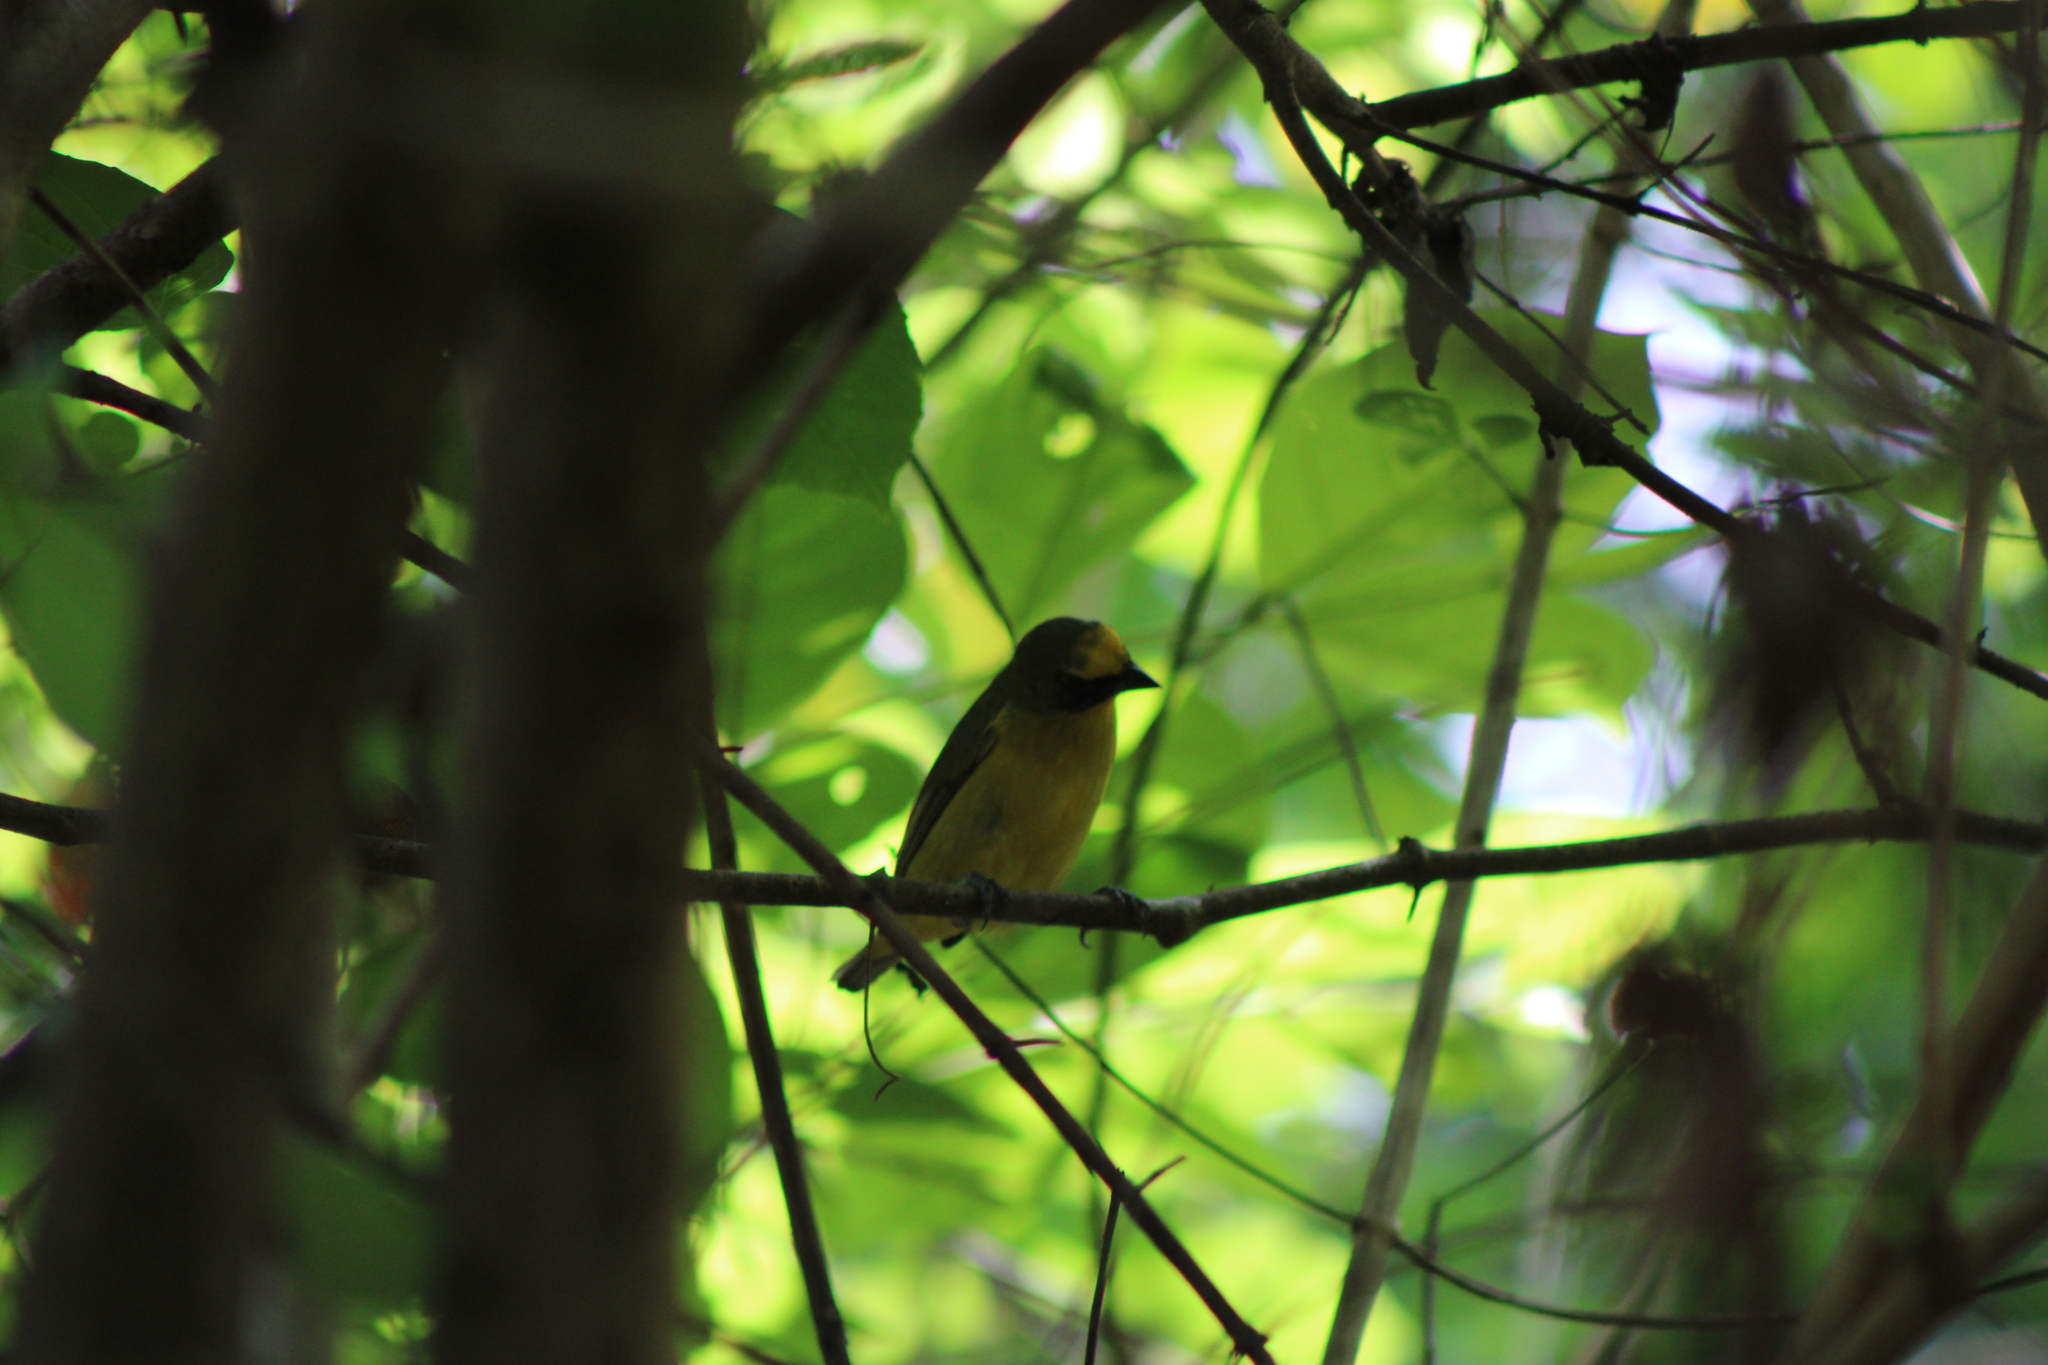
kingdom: Animalia
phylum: Chordata
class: Aves
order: Passeriformes
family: Fringillidae
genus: Euphonia
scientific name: Euphonia laniirostris
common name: Thick-billed euphonia
